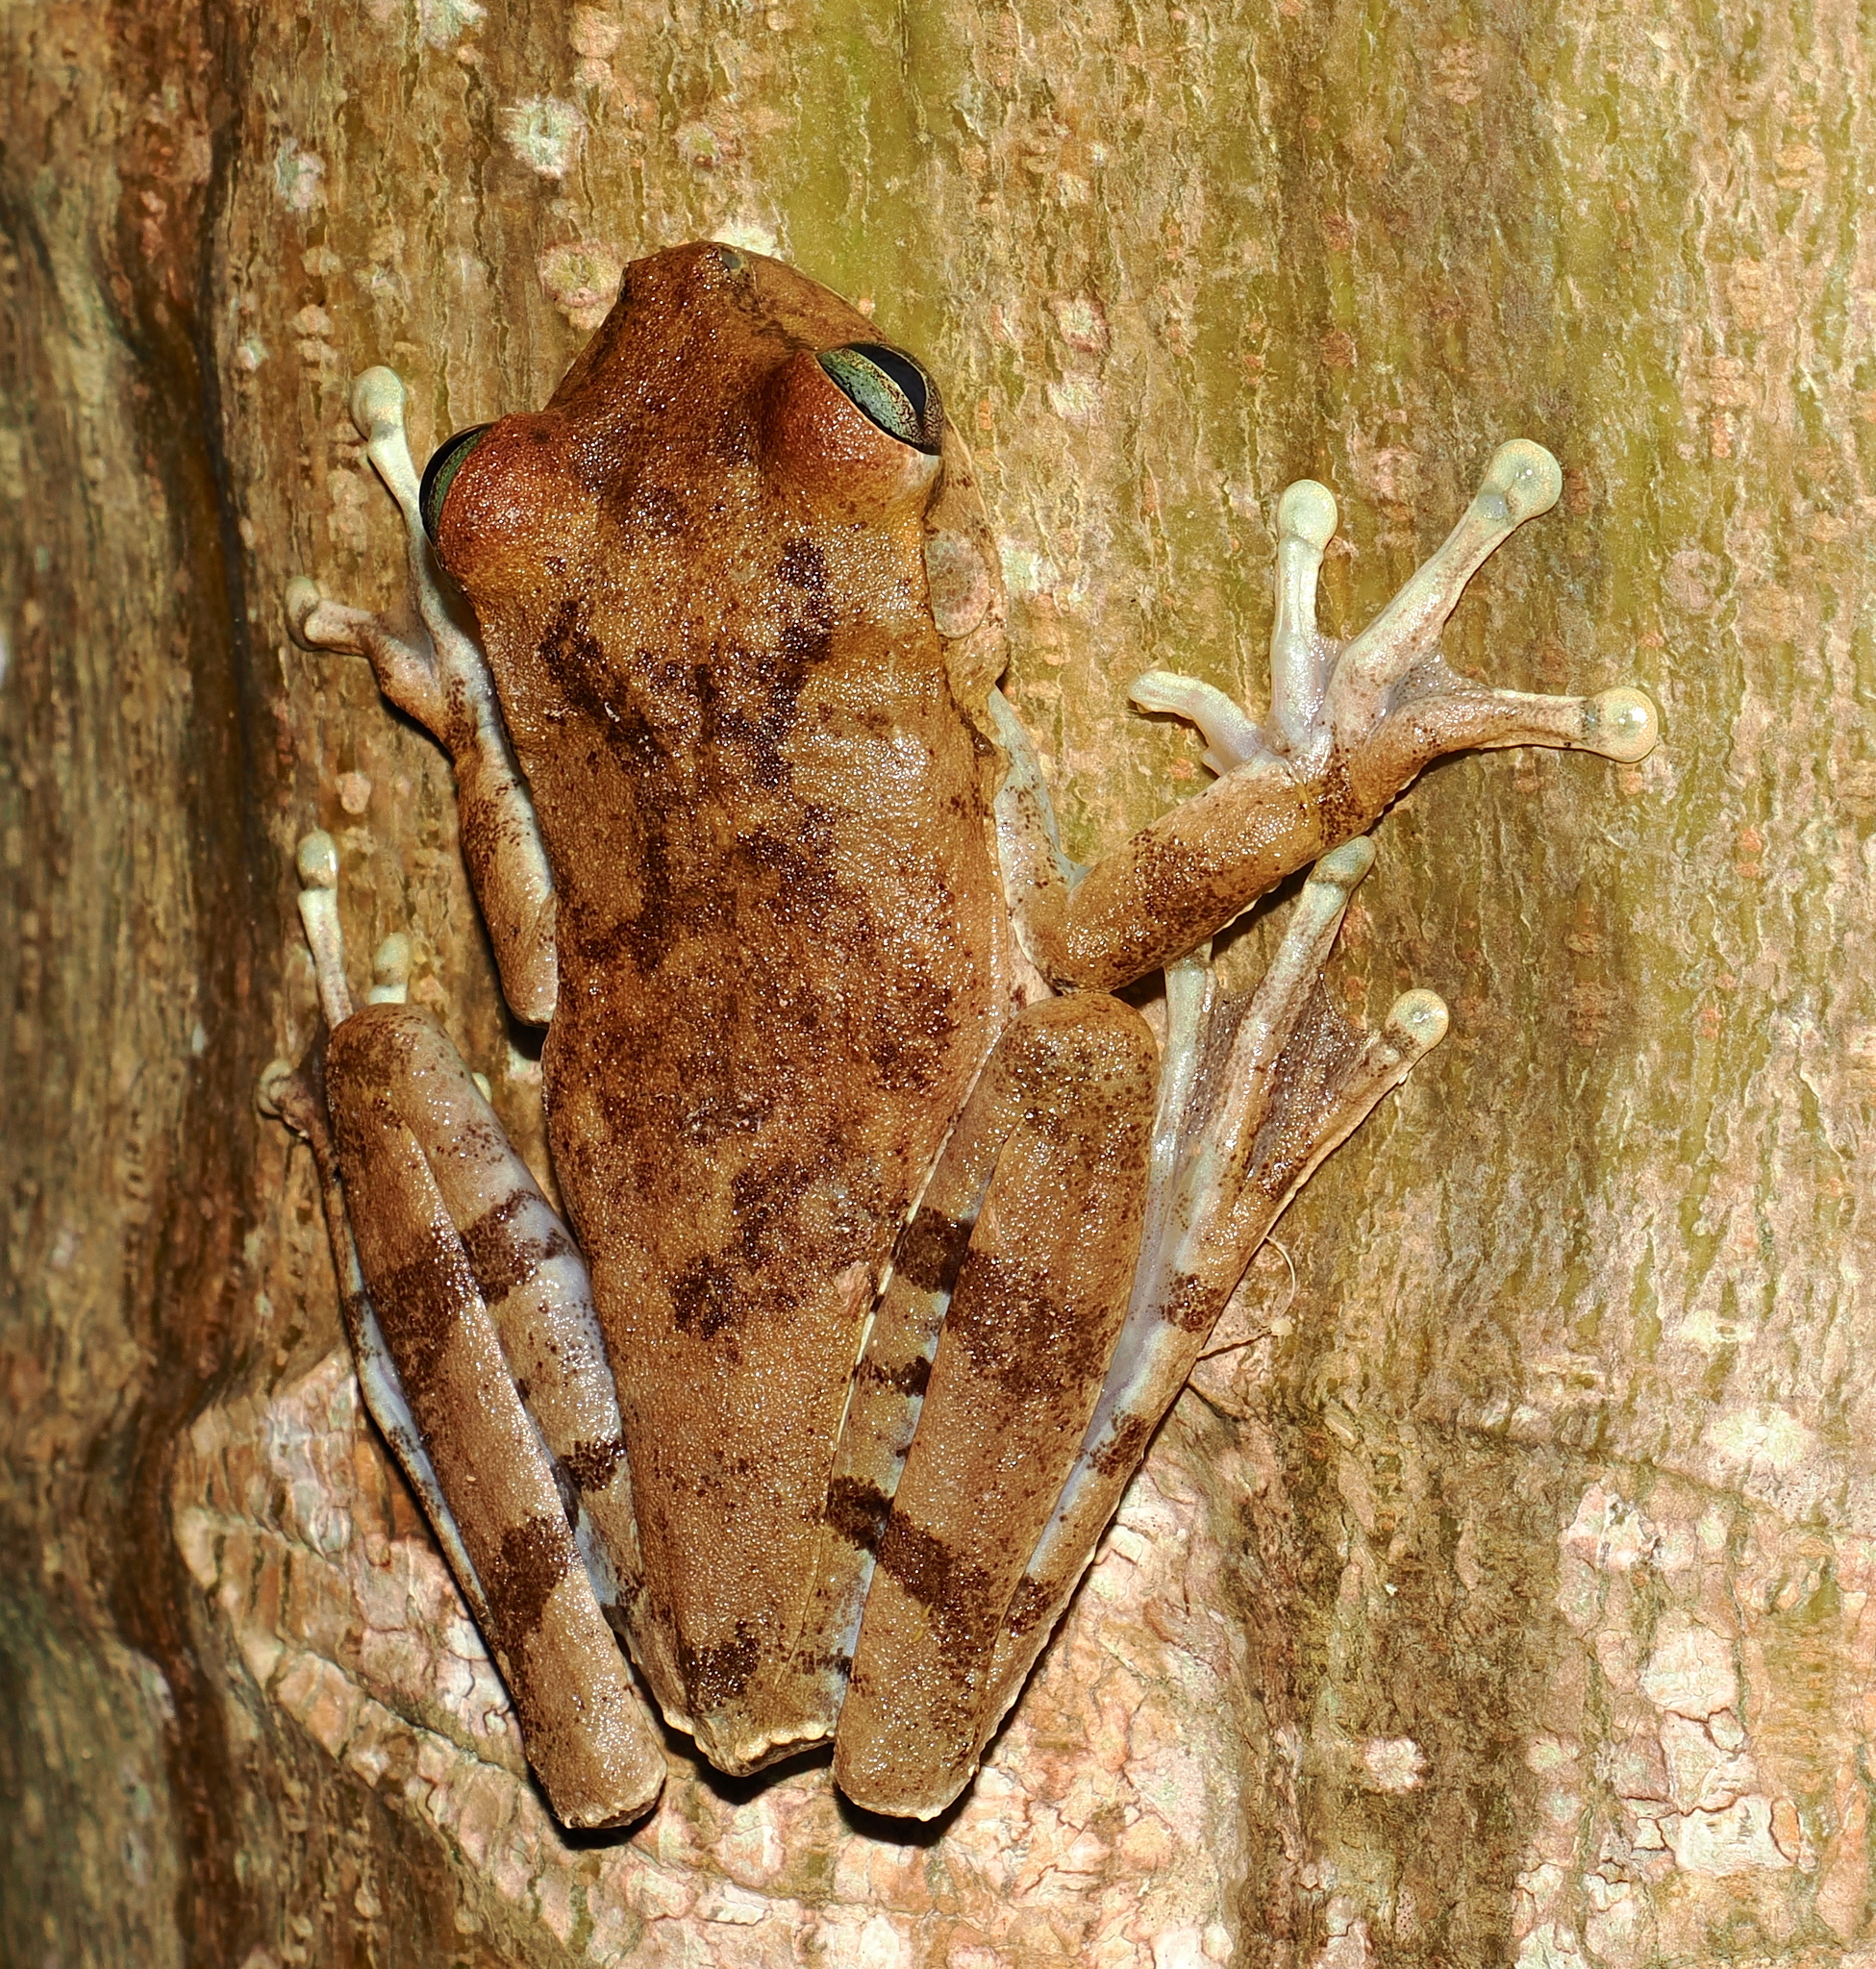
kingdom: Animalia
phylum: Chordata
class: Amphibia
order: Anura
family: Hylidae
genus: Boana
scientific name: Boana pugnax
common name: Chirique-flusse treefrog
